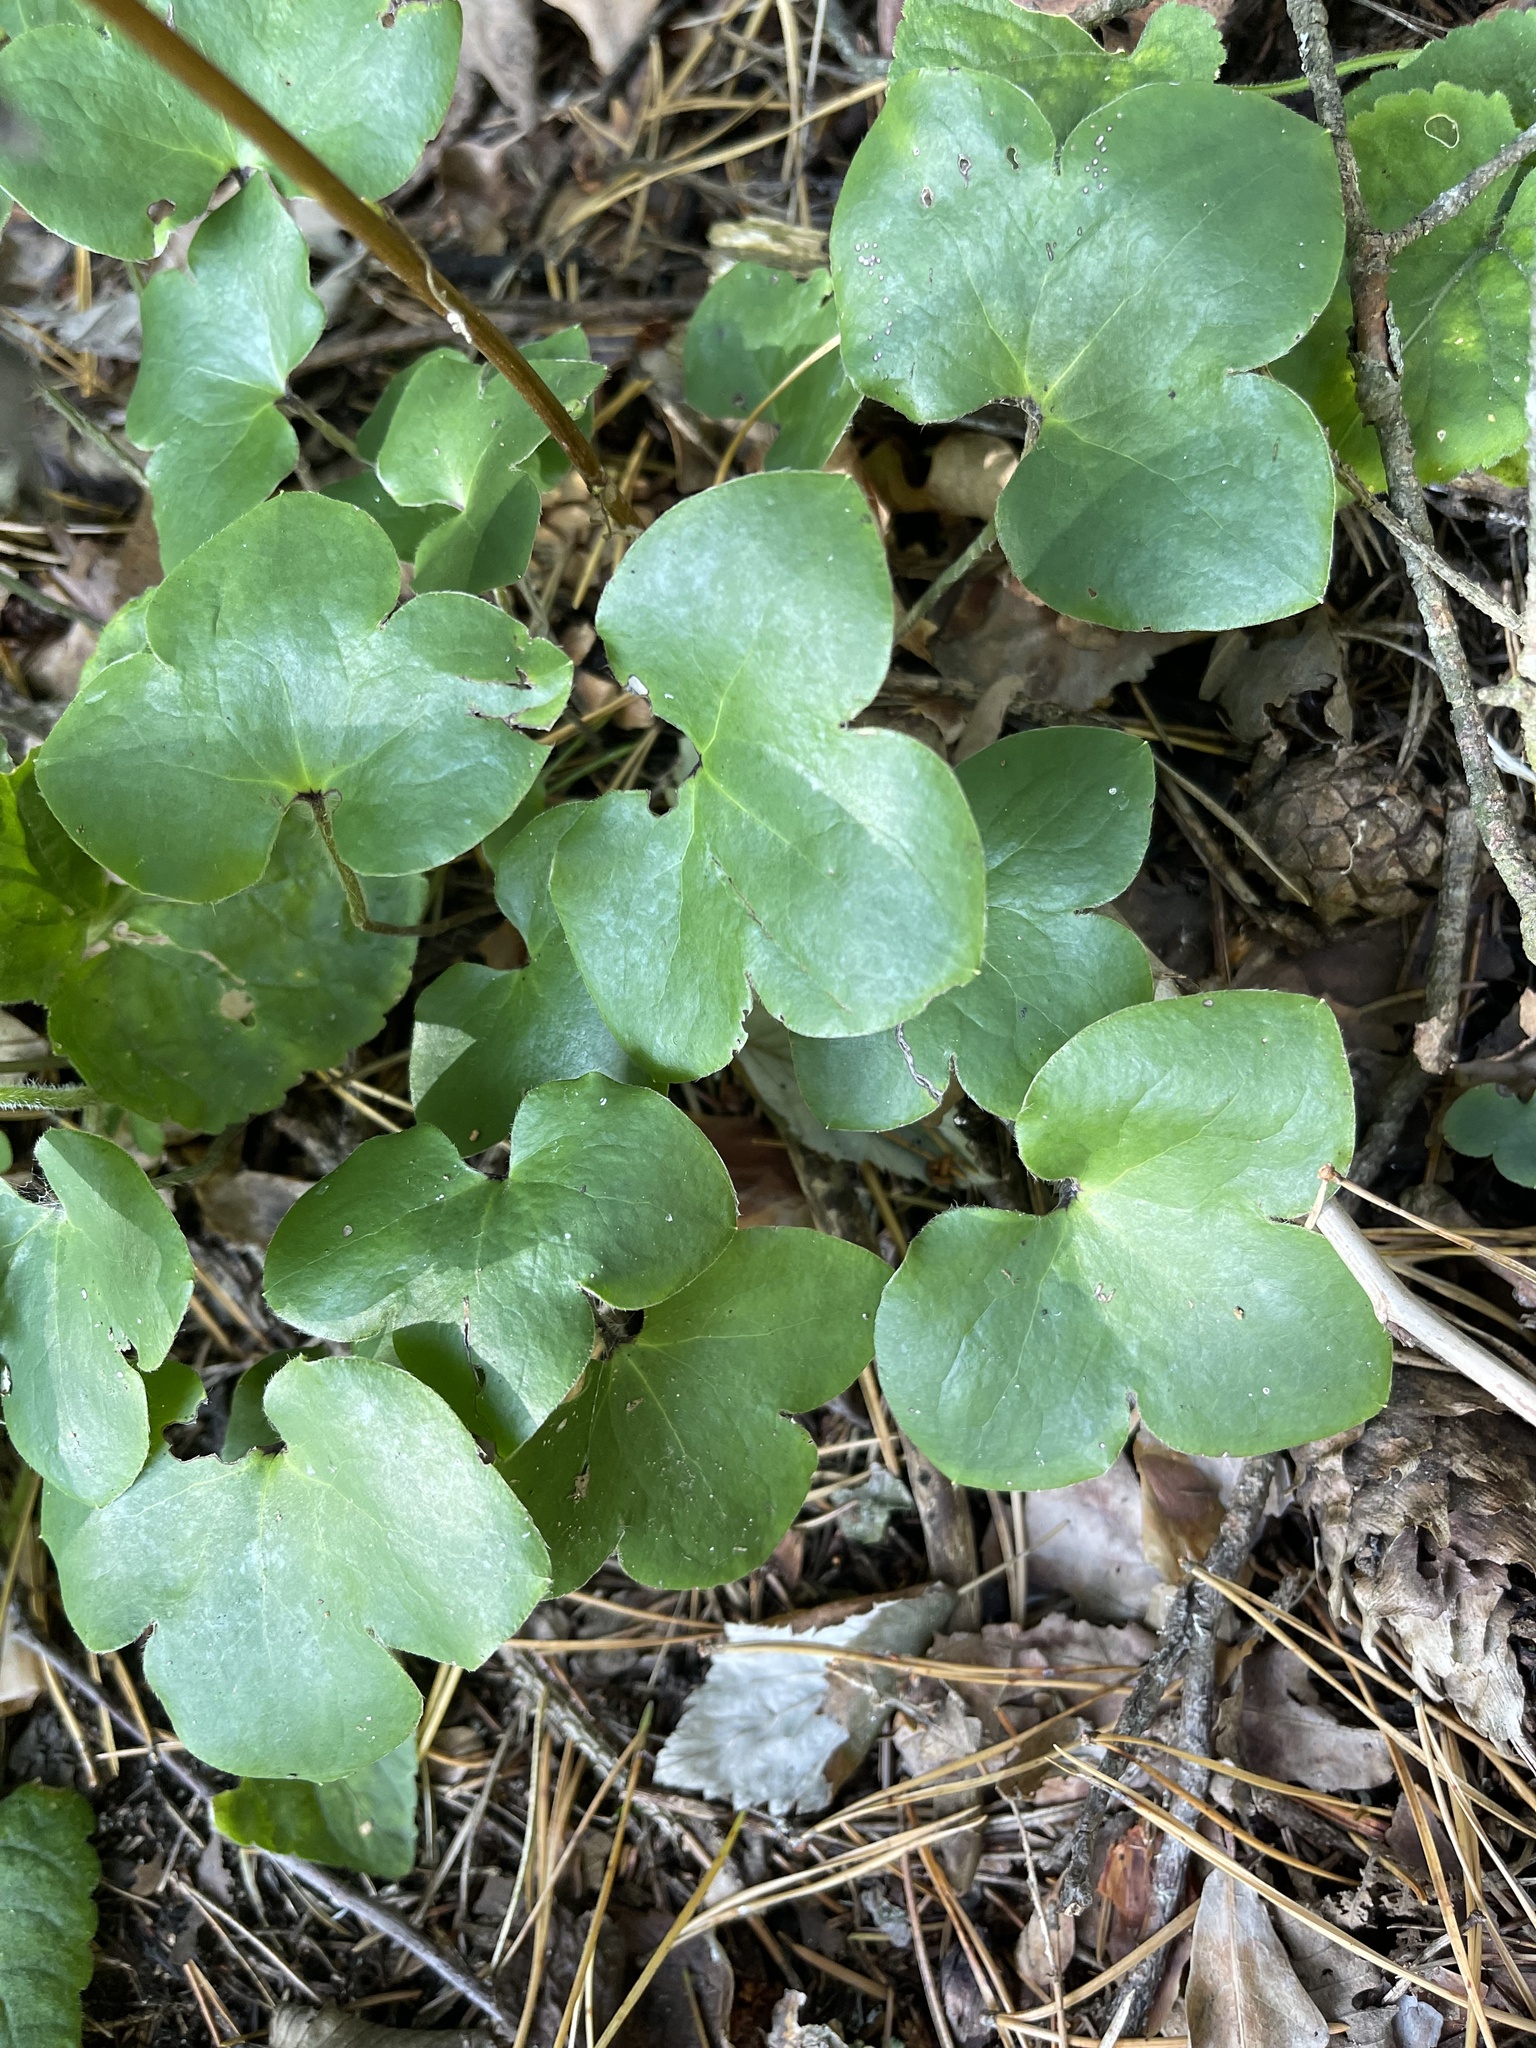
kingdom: Plantae
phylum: Tracheophyta
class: Magnoliopsida
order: Ranunculales
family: Ranunculaceae
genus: Hepatica
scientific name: Hepatica nobilis
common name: Liverleaf
